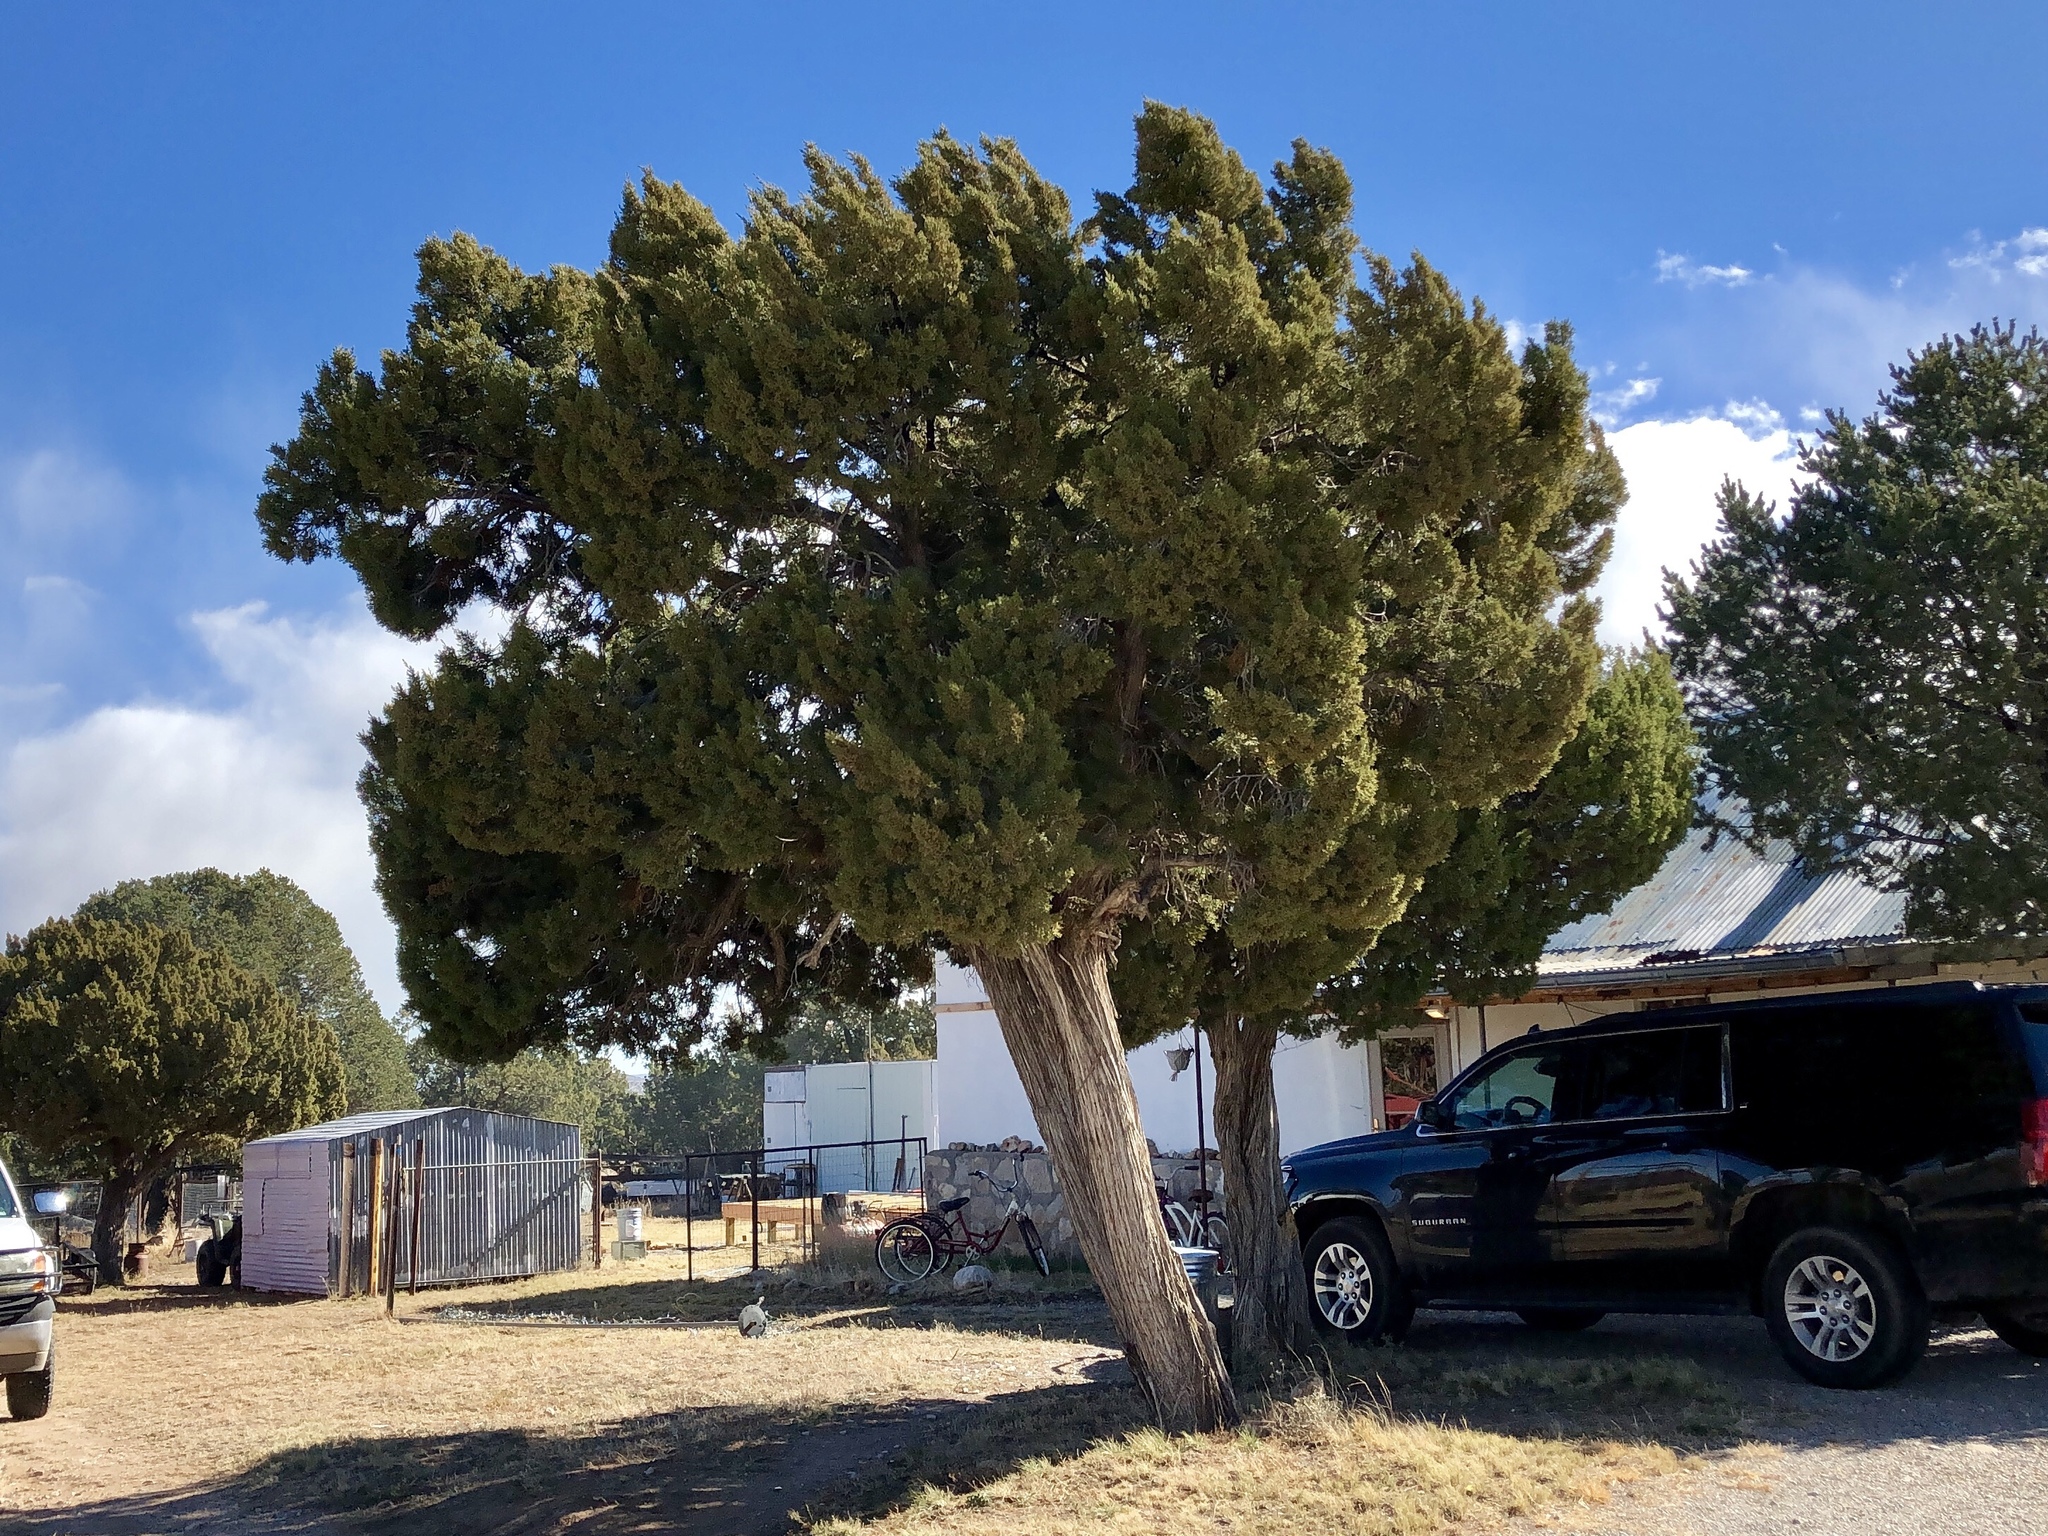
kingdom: Plantae
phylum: Tracheophyta
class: Pinopsida
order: Pinales
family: Cupressaceae
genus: Juniperus
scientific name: Juniperus monosperma
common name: One-seed juniper
